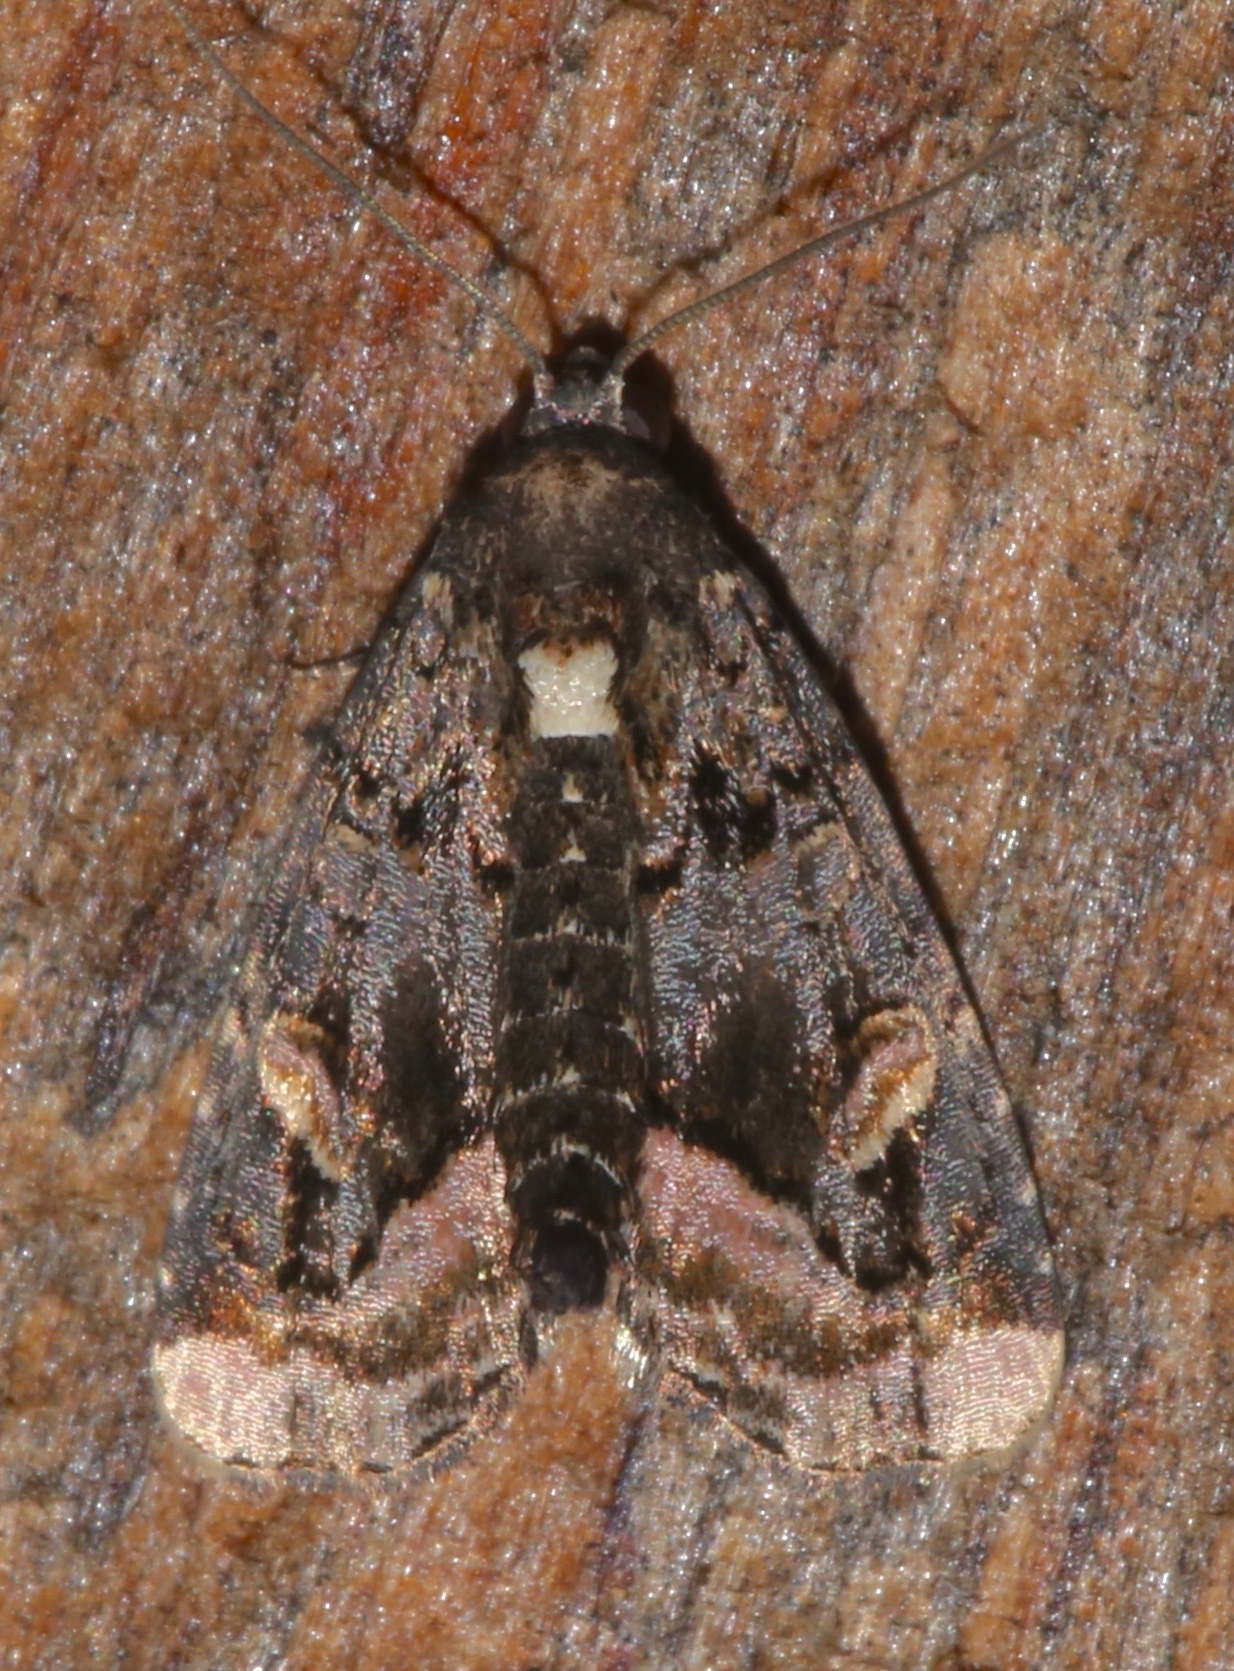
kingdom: Animalia
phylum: Arthropoda
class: Insecta
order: Lepidoptera
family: Noctuidae
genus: Homophoberia
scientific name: Homophoberia apicosa
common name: Black wedge-spot
